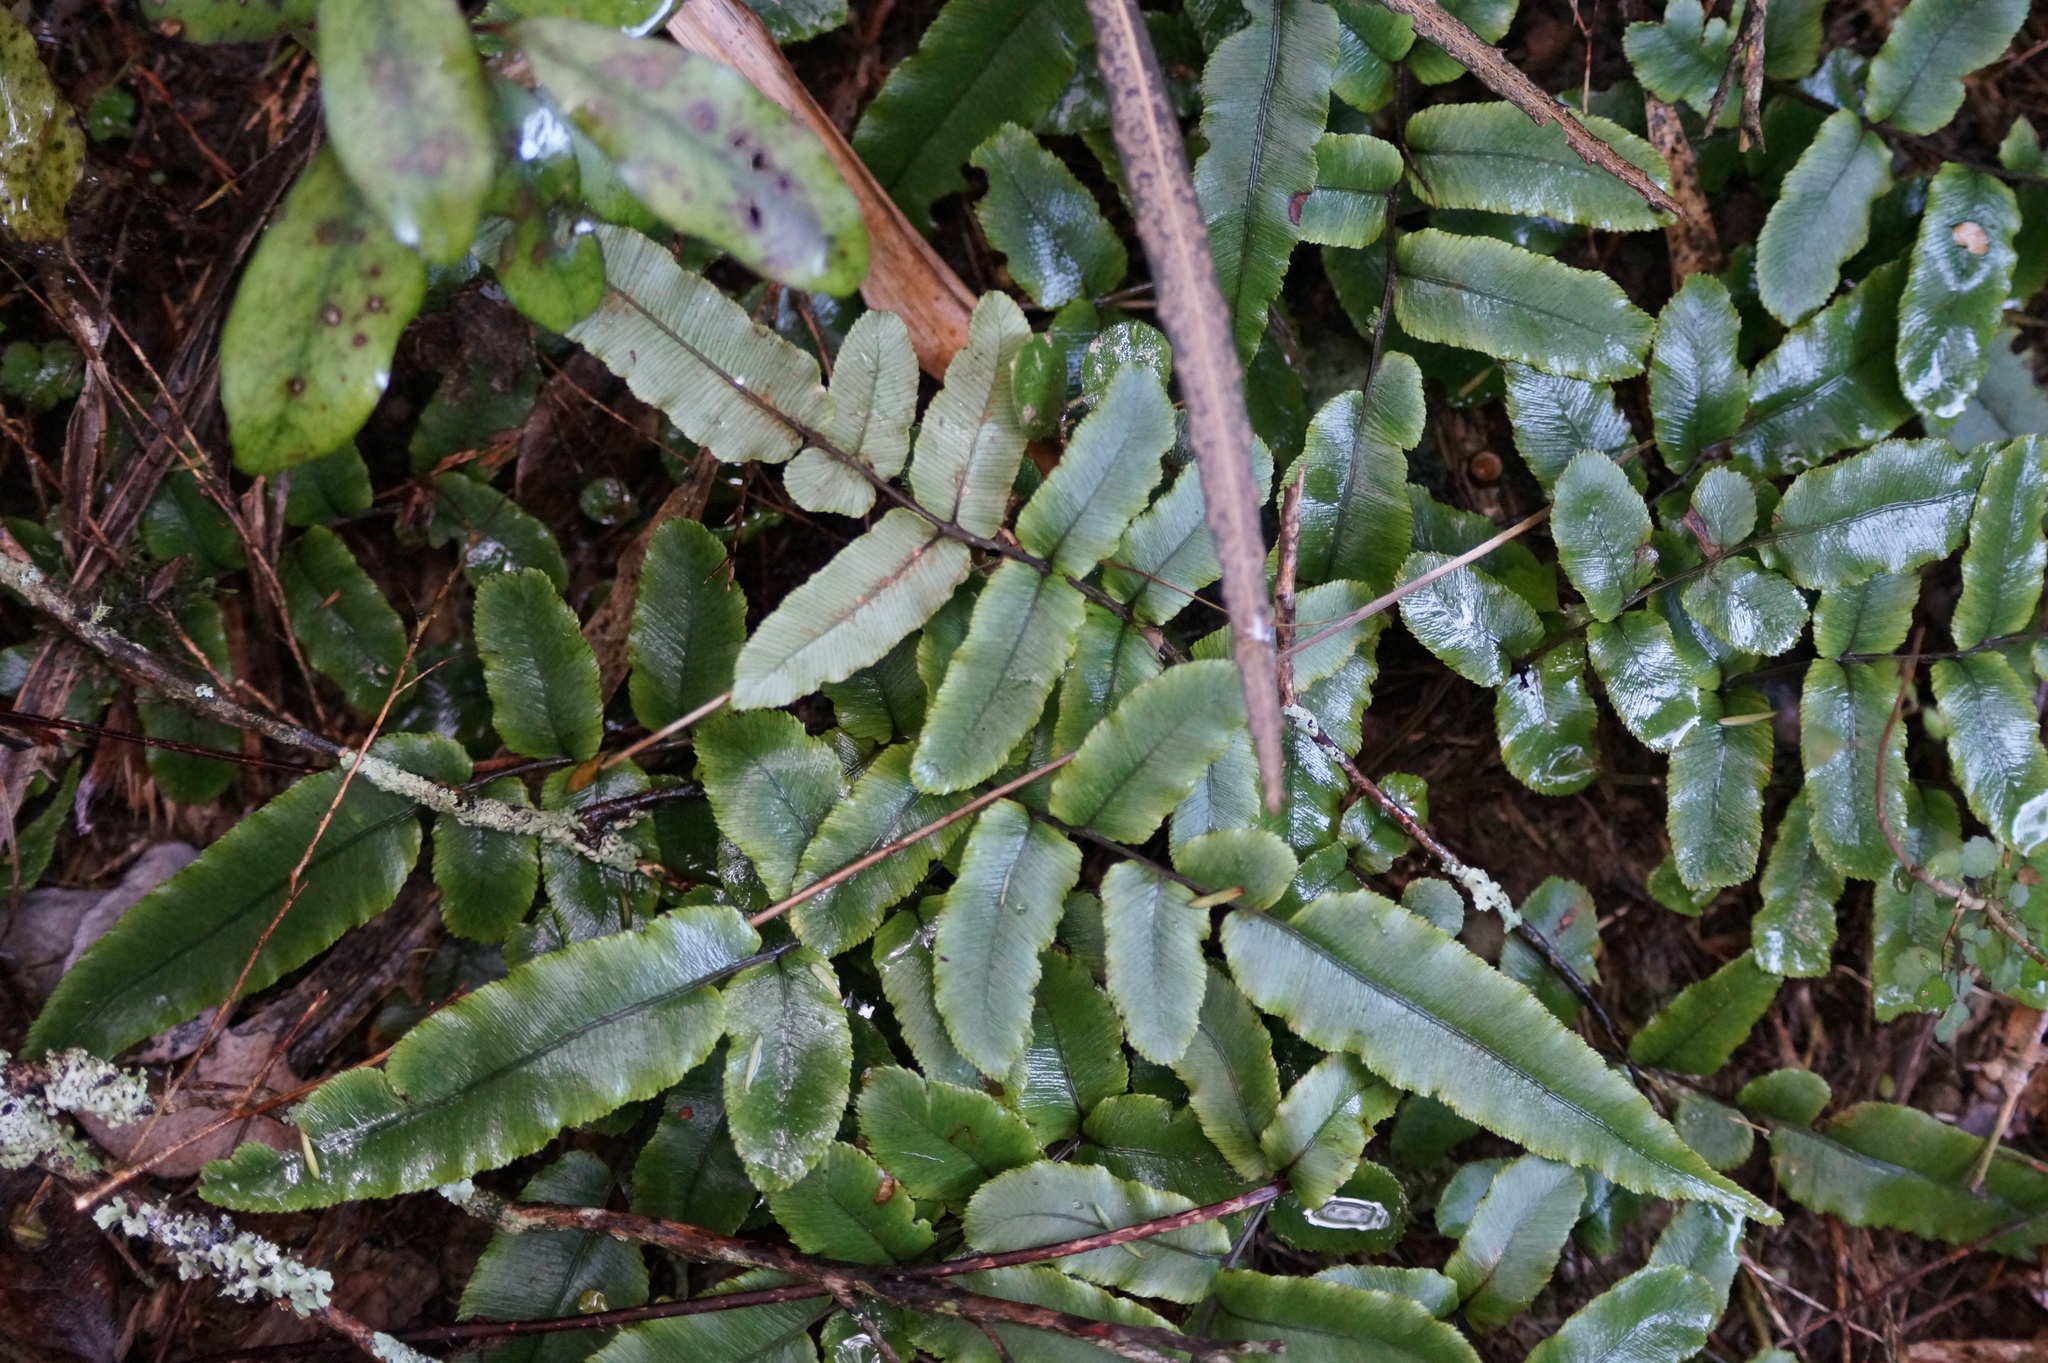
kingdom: Plantae
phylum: Tracheophyta
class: Polypodiopsida
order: Polypodiales
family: Blechnaceae
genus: Parablechnum
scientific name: Parablechnum procerum
